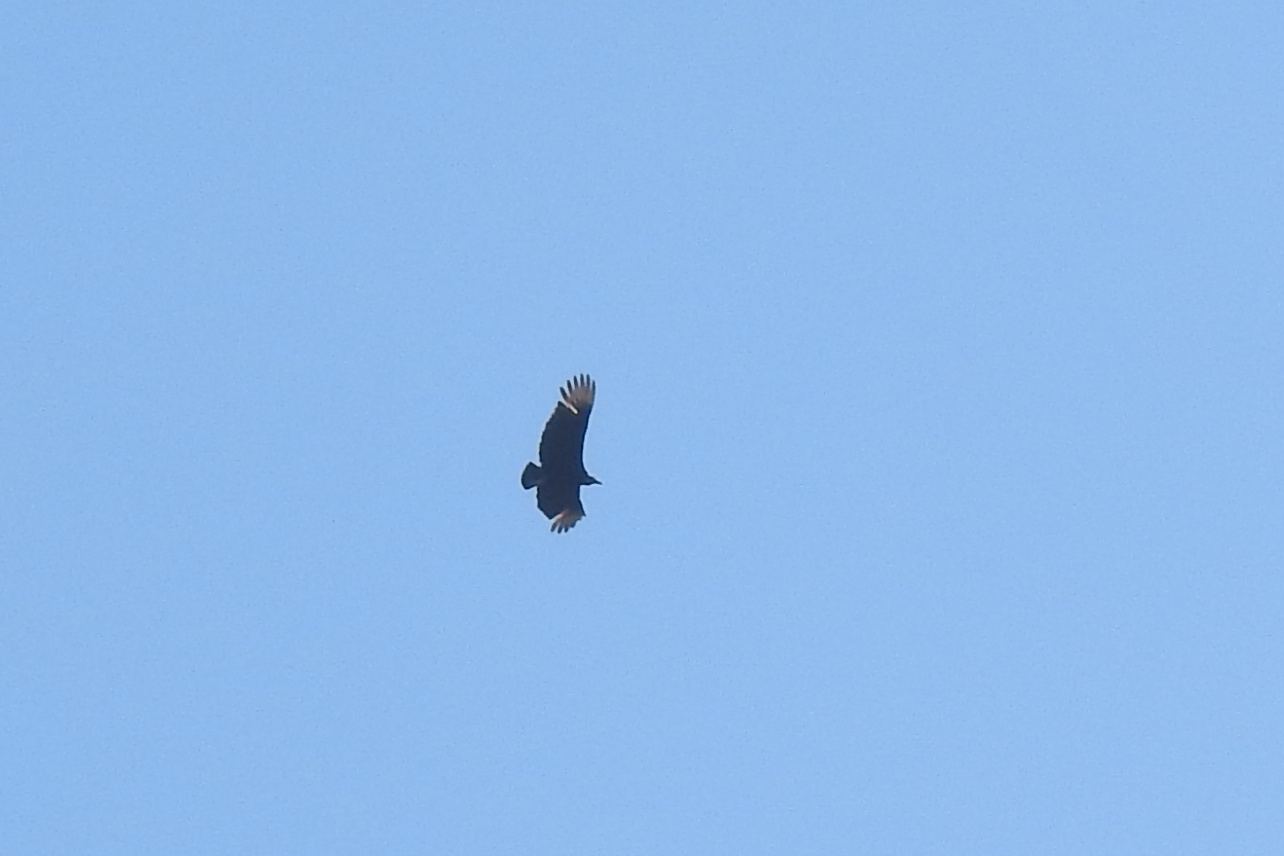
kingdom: Animalia
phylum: Chordata
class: Aves
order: Accipitriformes
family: Cathartidae
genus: Coragyps
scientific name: Coragyps atratus
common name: Black vulture
